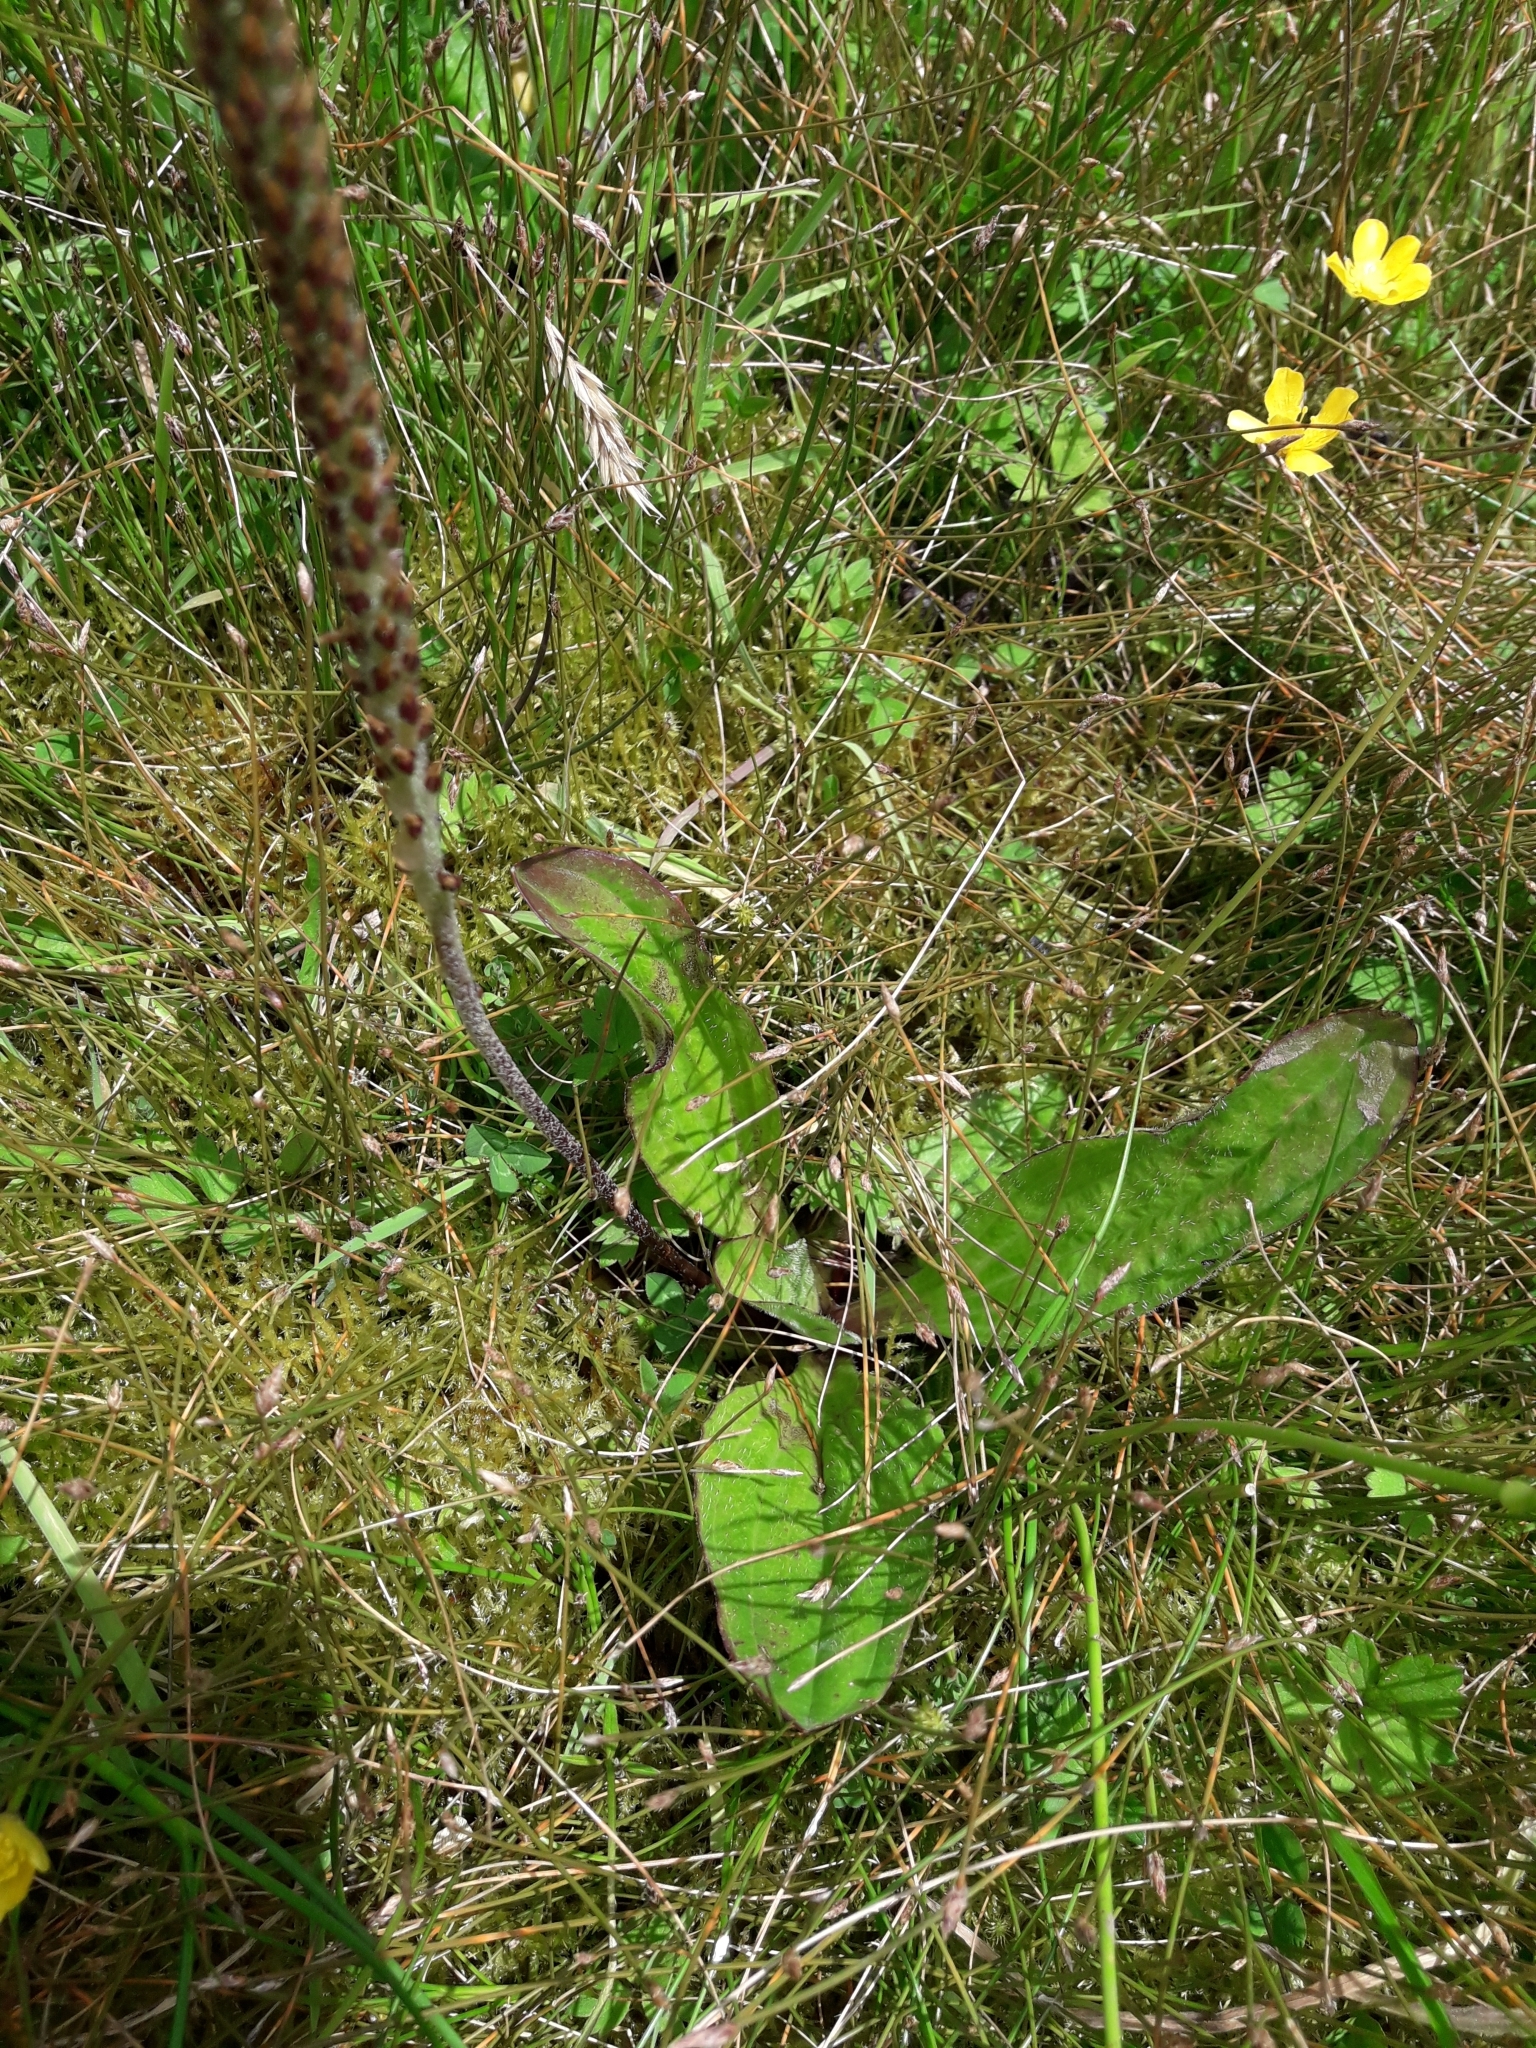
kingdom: Plantae
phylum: Tracheophyta
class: Magnoliopsida
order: Lamiales
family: Plantaginaceae
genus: Plantago
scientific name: Plantago australis
